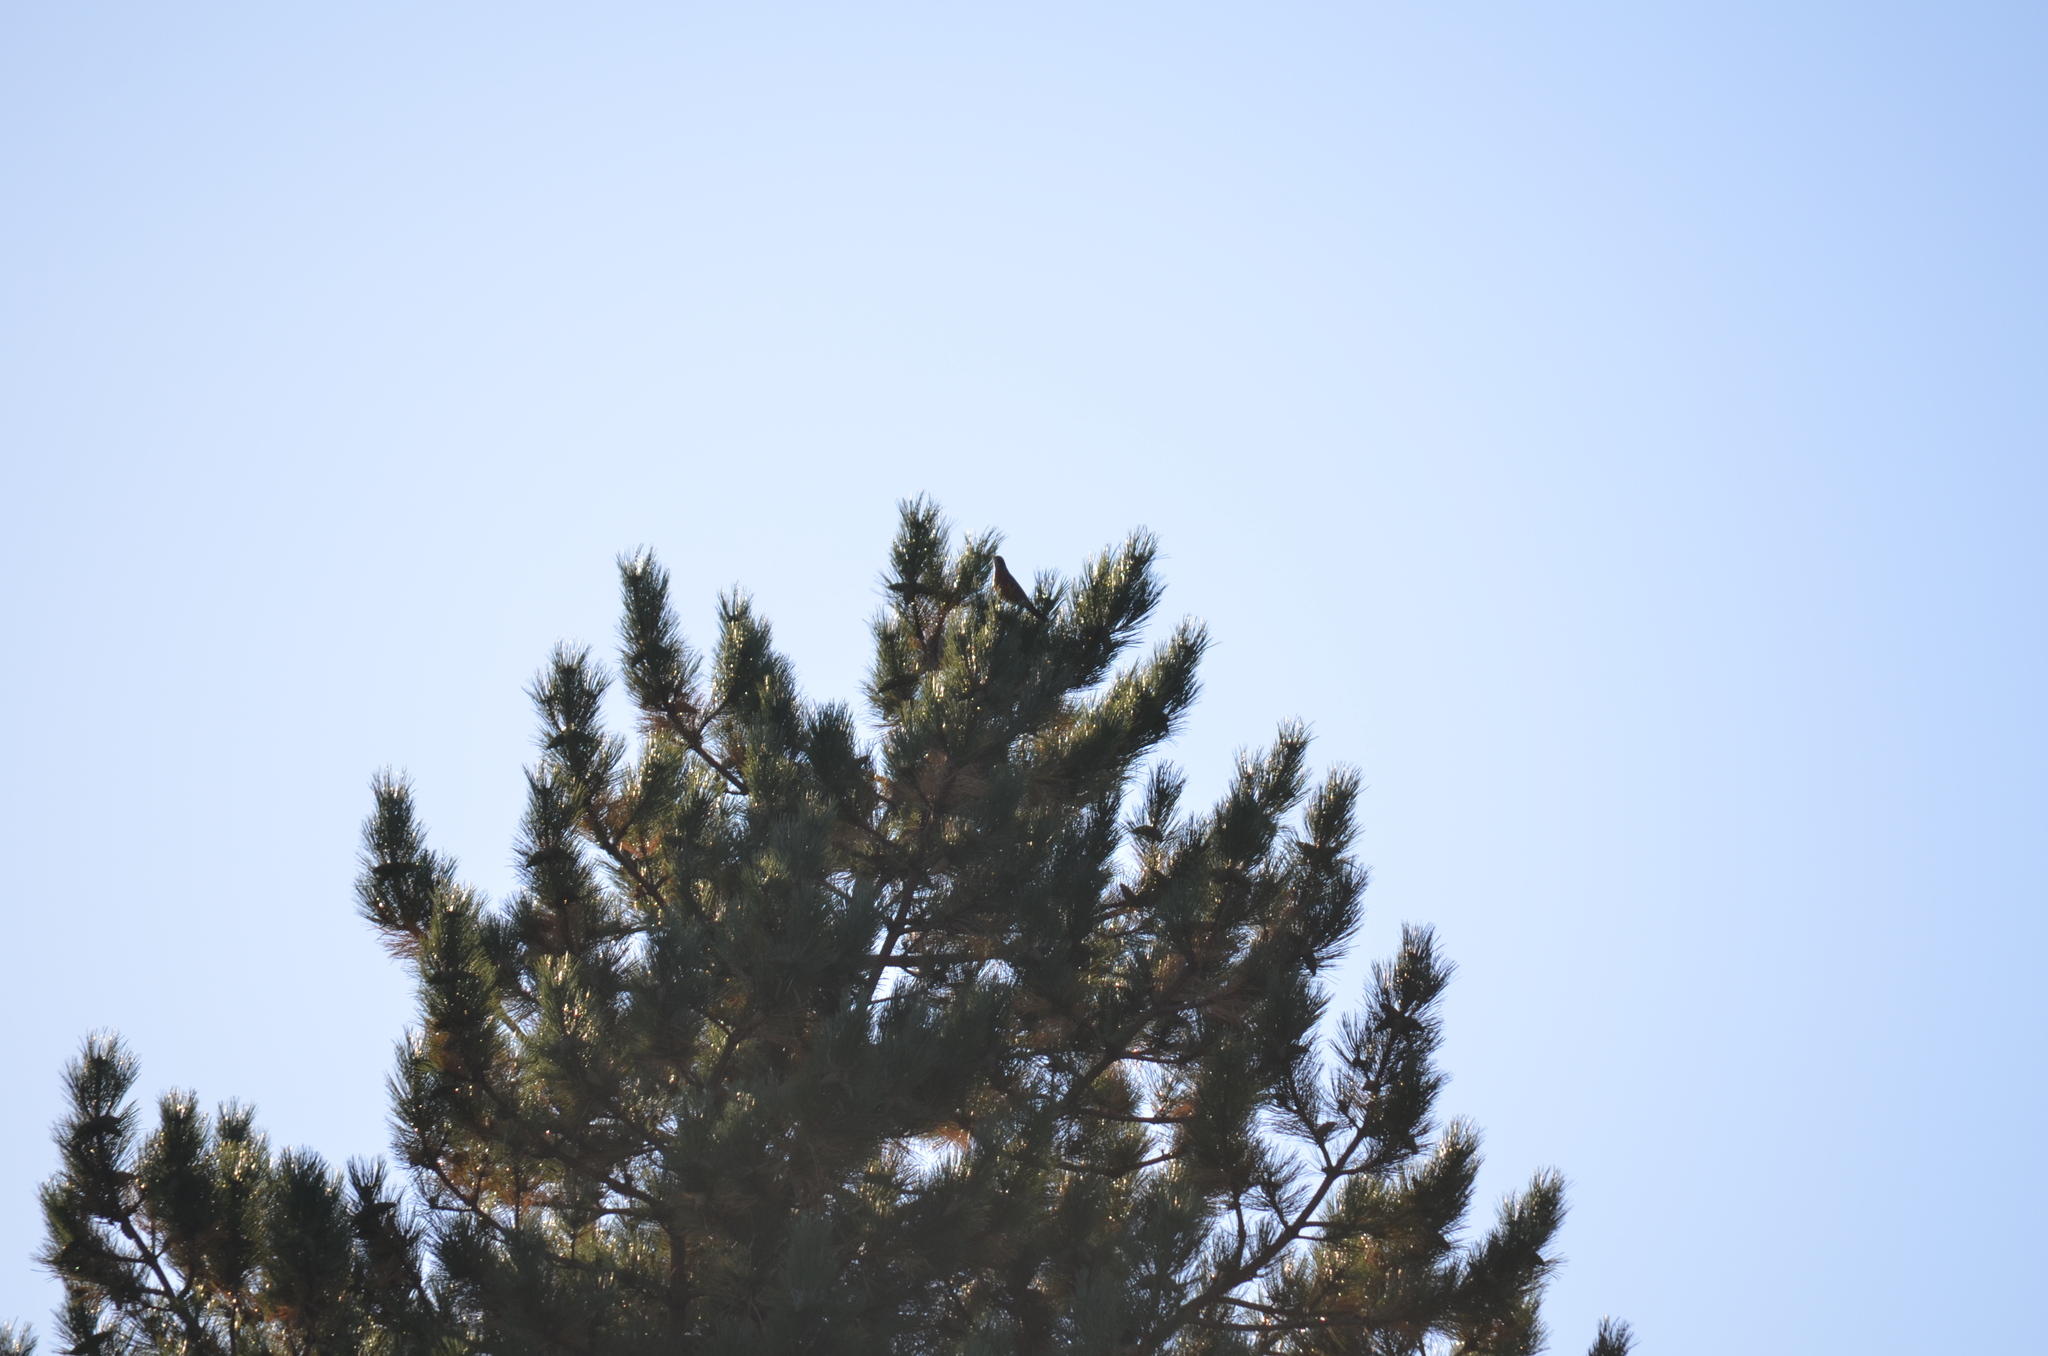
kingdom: Animalia
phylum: Chordata
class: Aves
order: Passeriformes
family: Turdidae
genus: Turdus
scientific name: Turdus migratorius
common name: American robin
